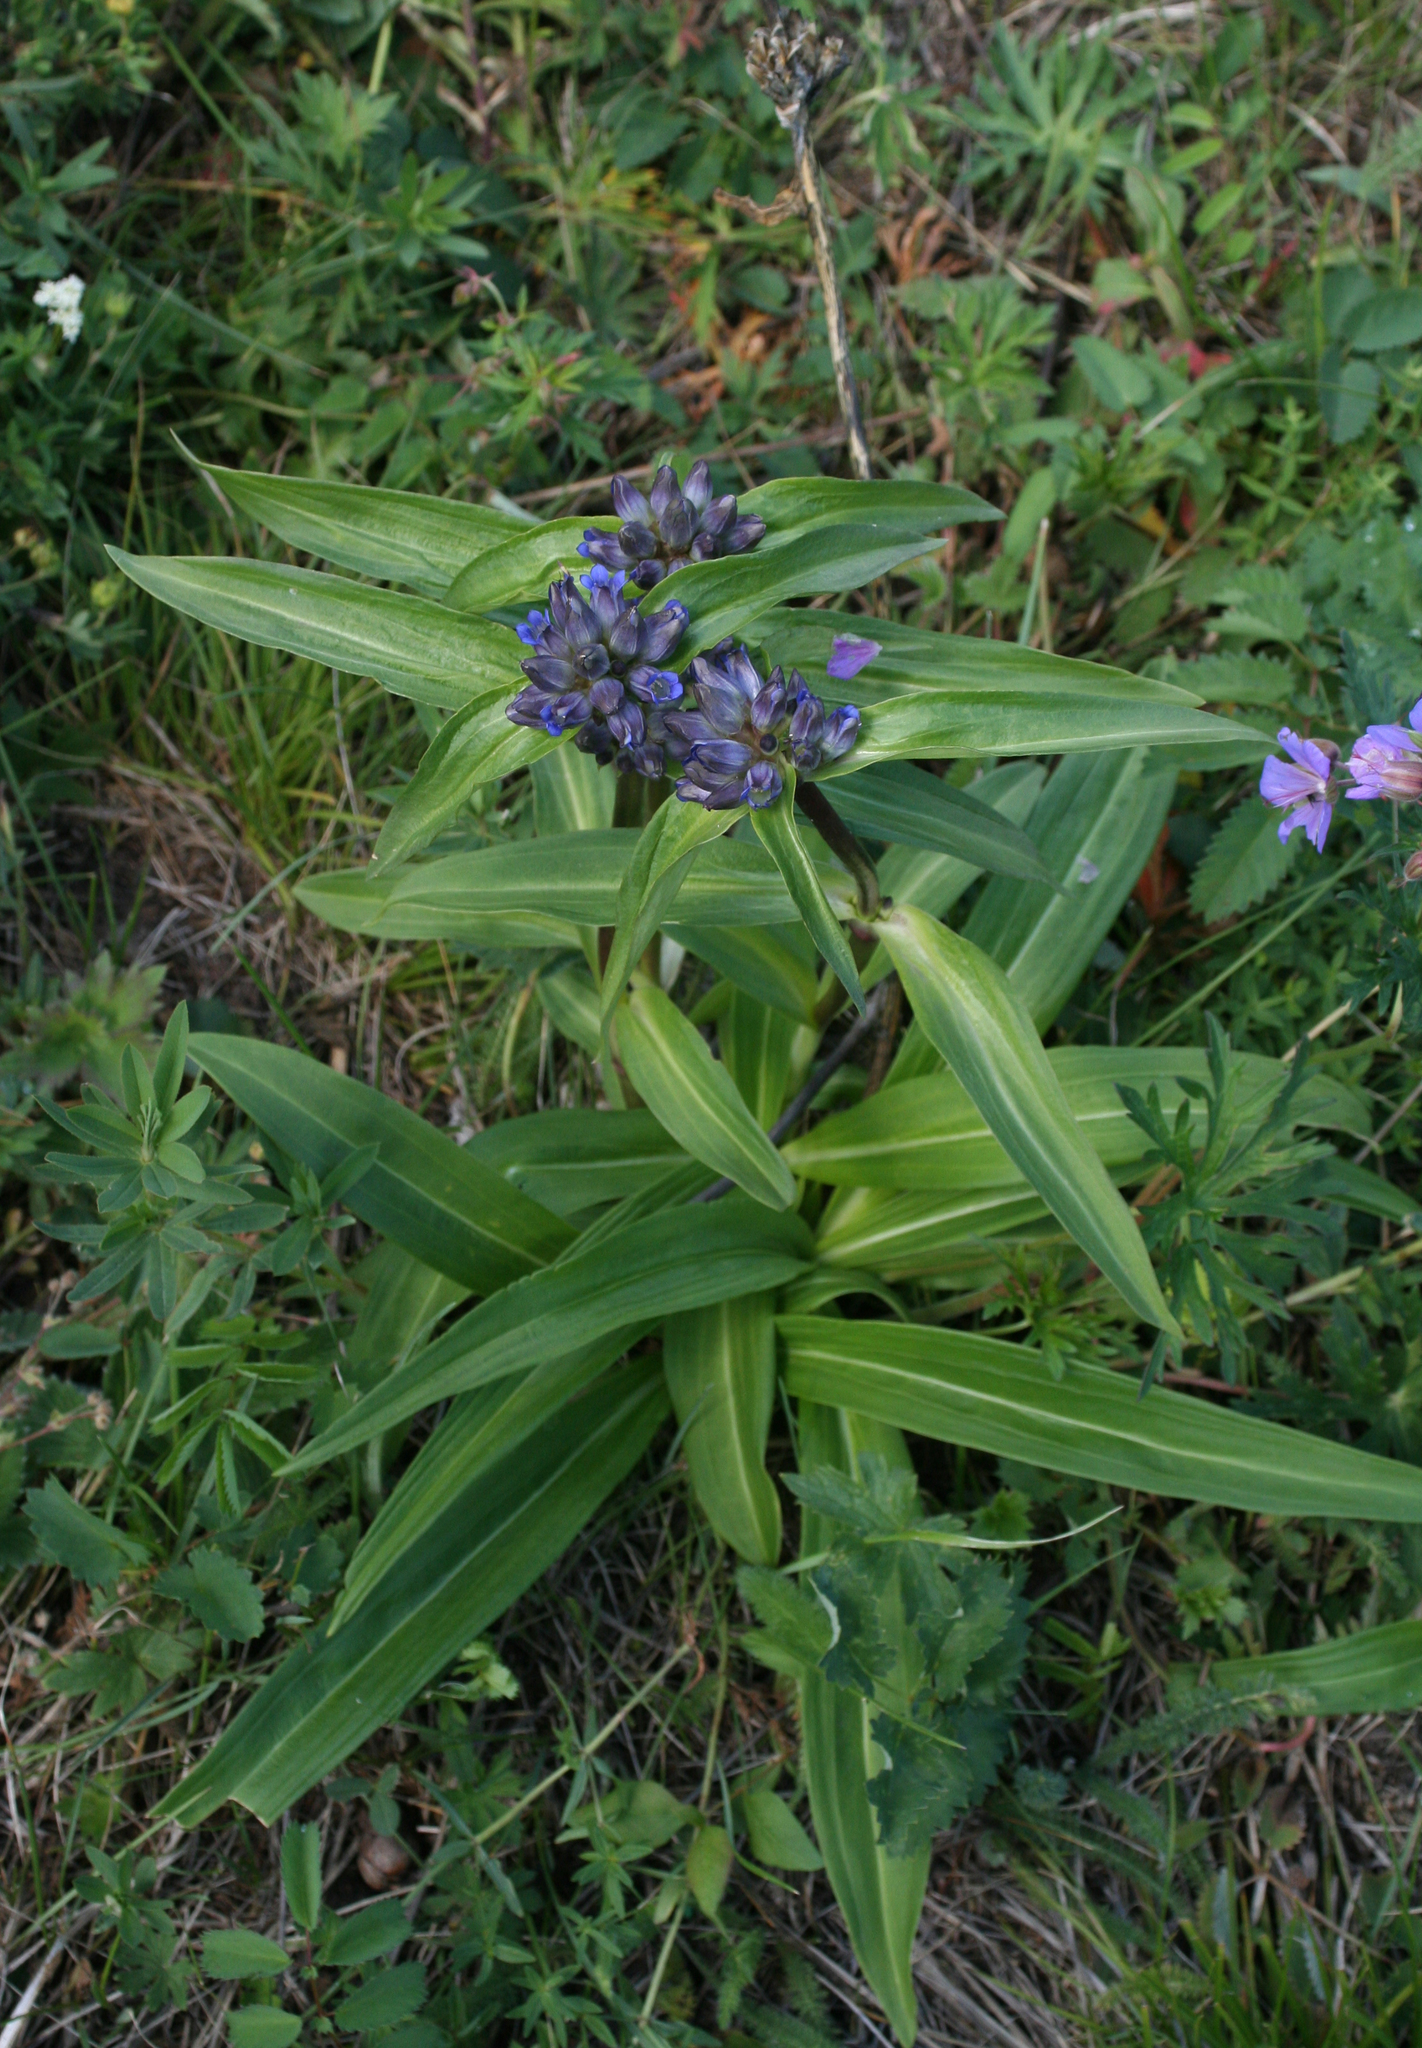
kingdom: Plantae
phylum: Tracheophyta
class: Magnoliopsida
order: Gentianales
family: Gentianaceae
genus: Gentiana
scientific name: Gentiana macrophylla
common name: Large-leaf gentian
